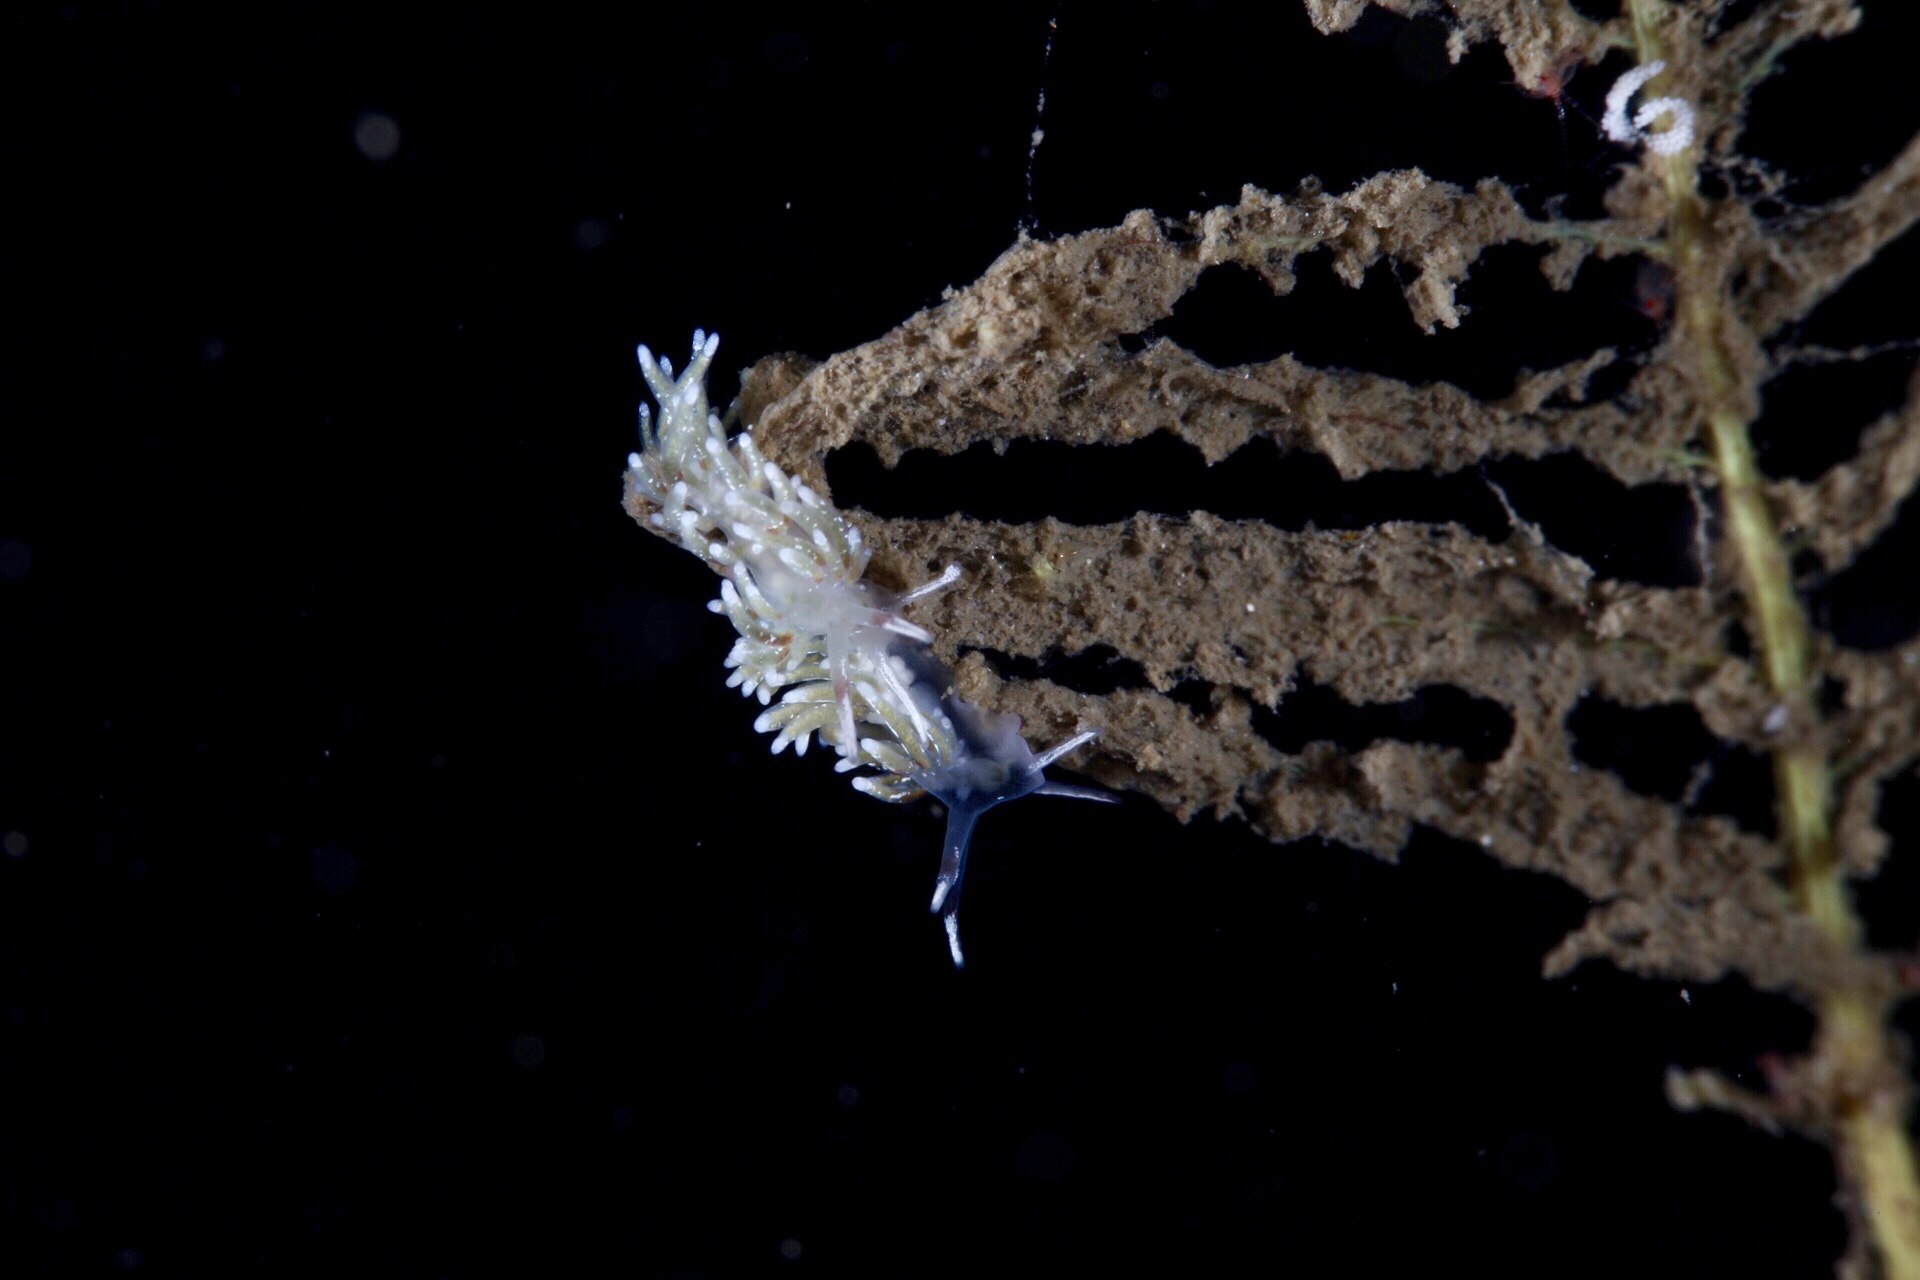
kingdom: Animalia
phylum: Mollusca
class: Gastropoda
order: Nudibranchia
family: Trinchesiidae
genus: Rubramoena
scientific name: Rubramoena rubescens
